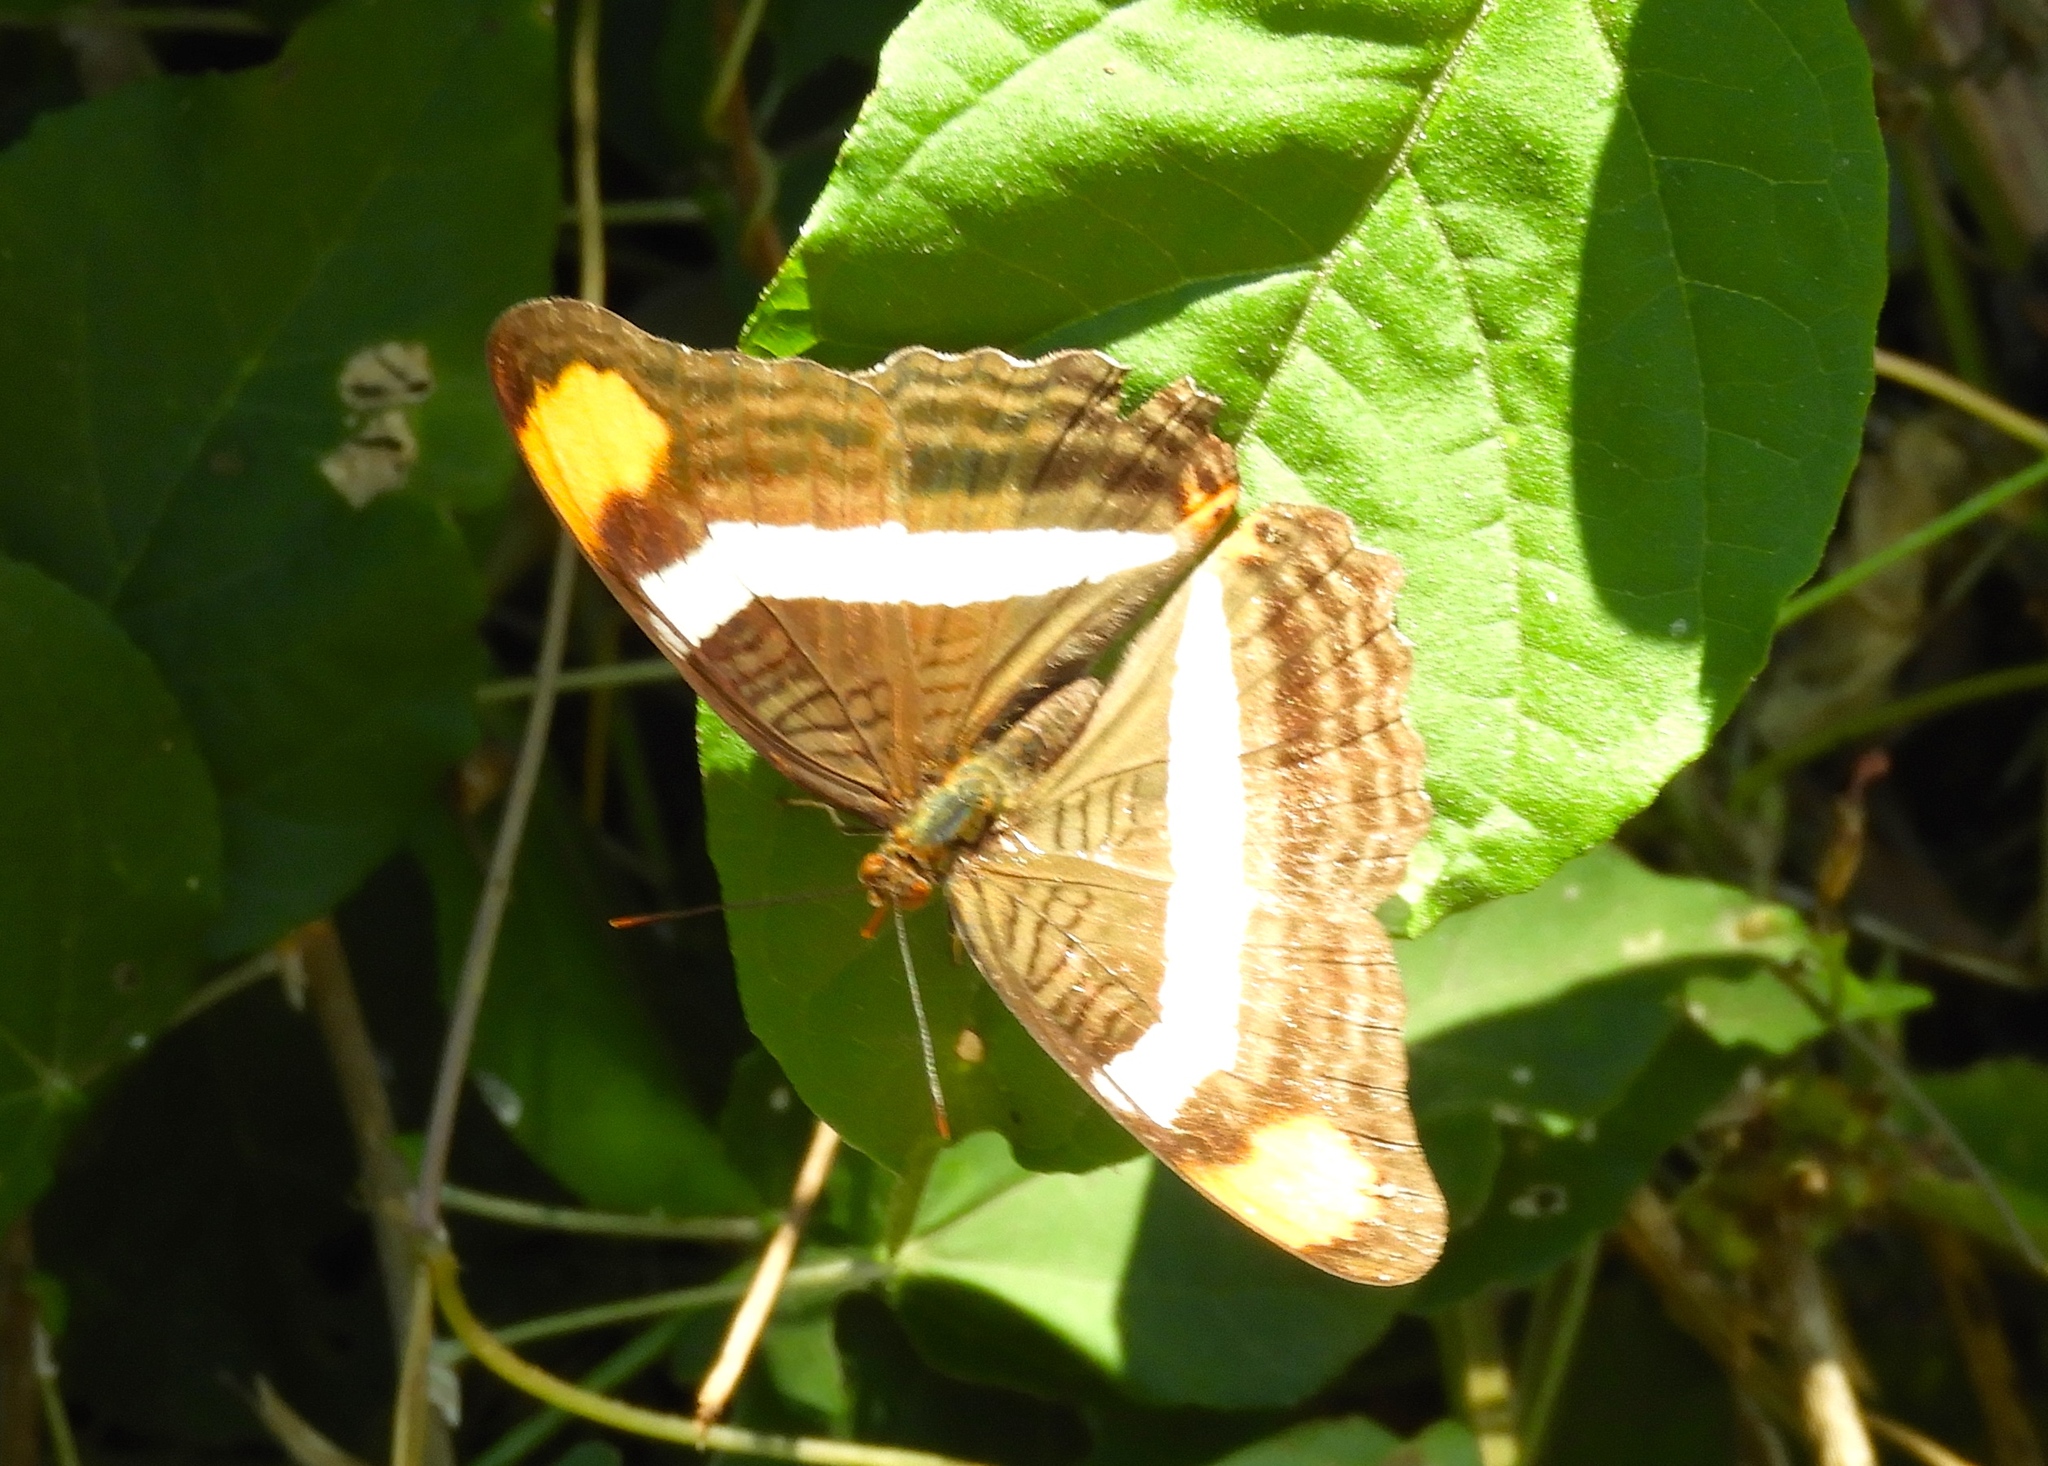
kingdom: Animalia
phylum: Arthropoda
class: Insecta
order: Lepidoptera
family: Nymphalidae
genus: Limenitis
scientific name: Limenitis fessonia
